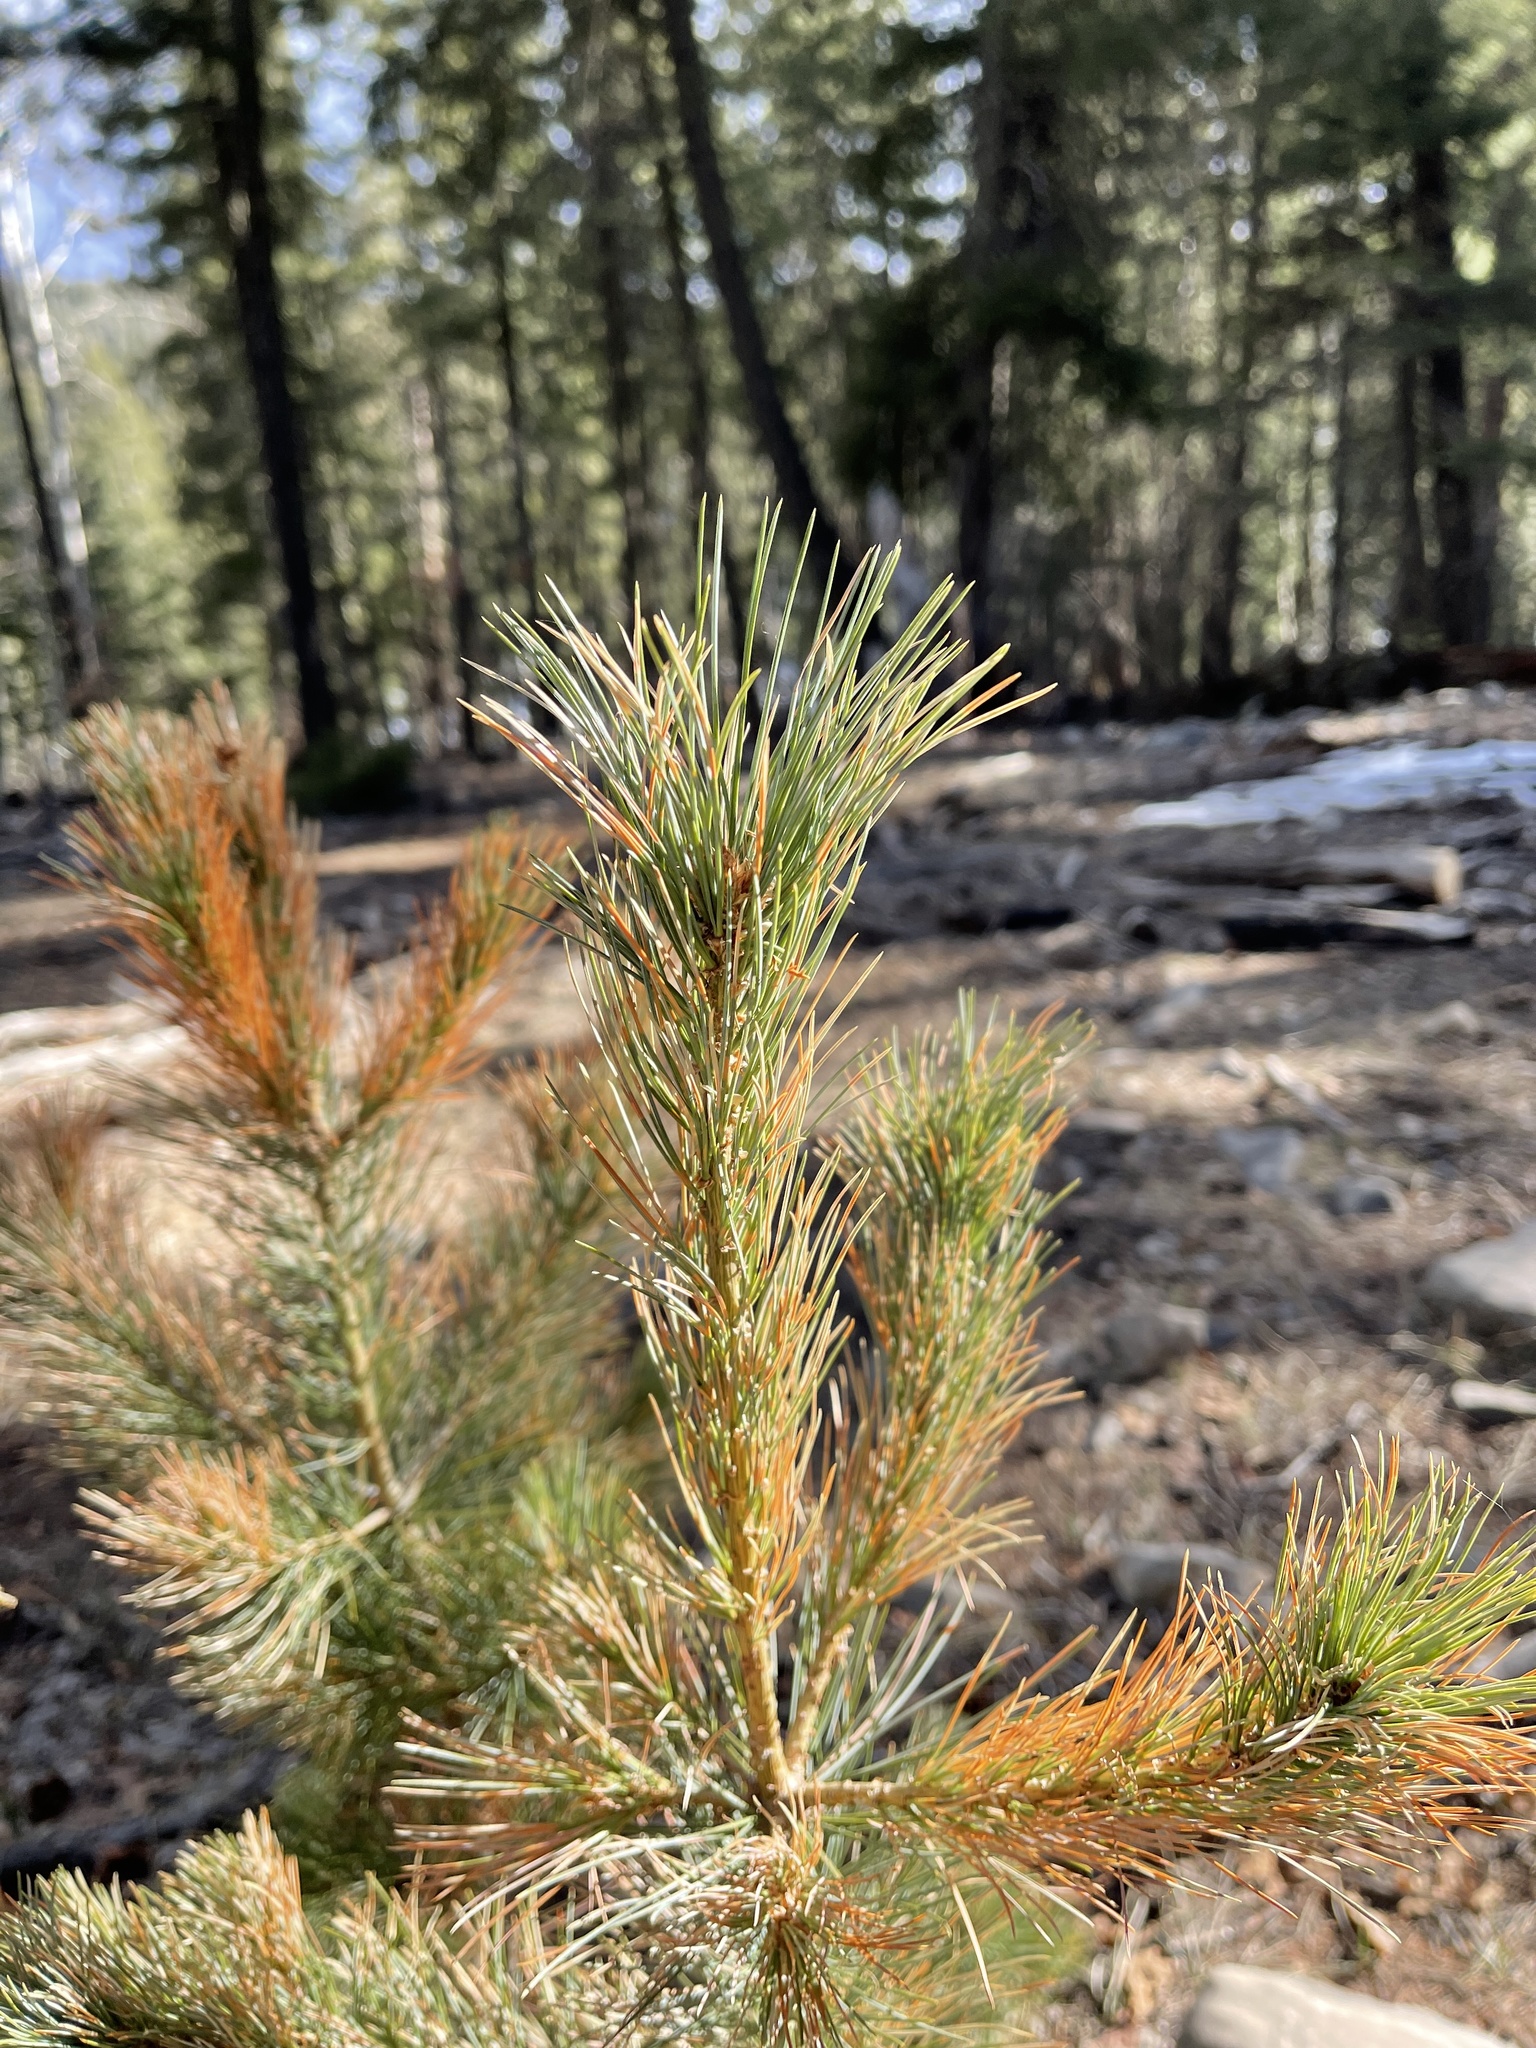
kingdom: Plantae
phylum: Tracheophyta
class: Pinopsida
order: Pinales
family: Pinaceae
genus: Pinus
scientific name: Pinus strobiformis
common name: Southwestern white pine
